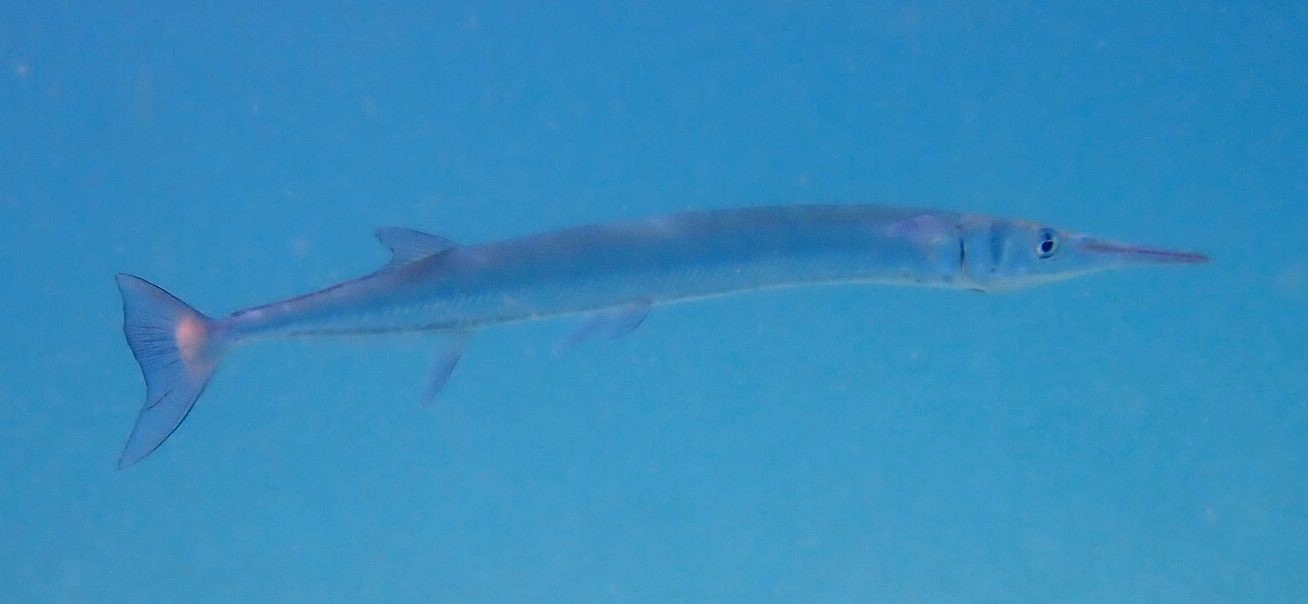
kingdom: Animalia
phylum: Chordata
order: Beloniformes
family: Belonidae
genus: Tylosurus
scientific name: Tylosurus crocodilus
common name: Houndfish
